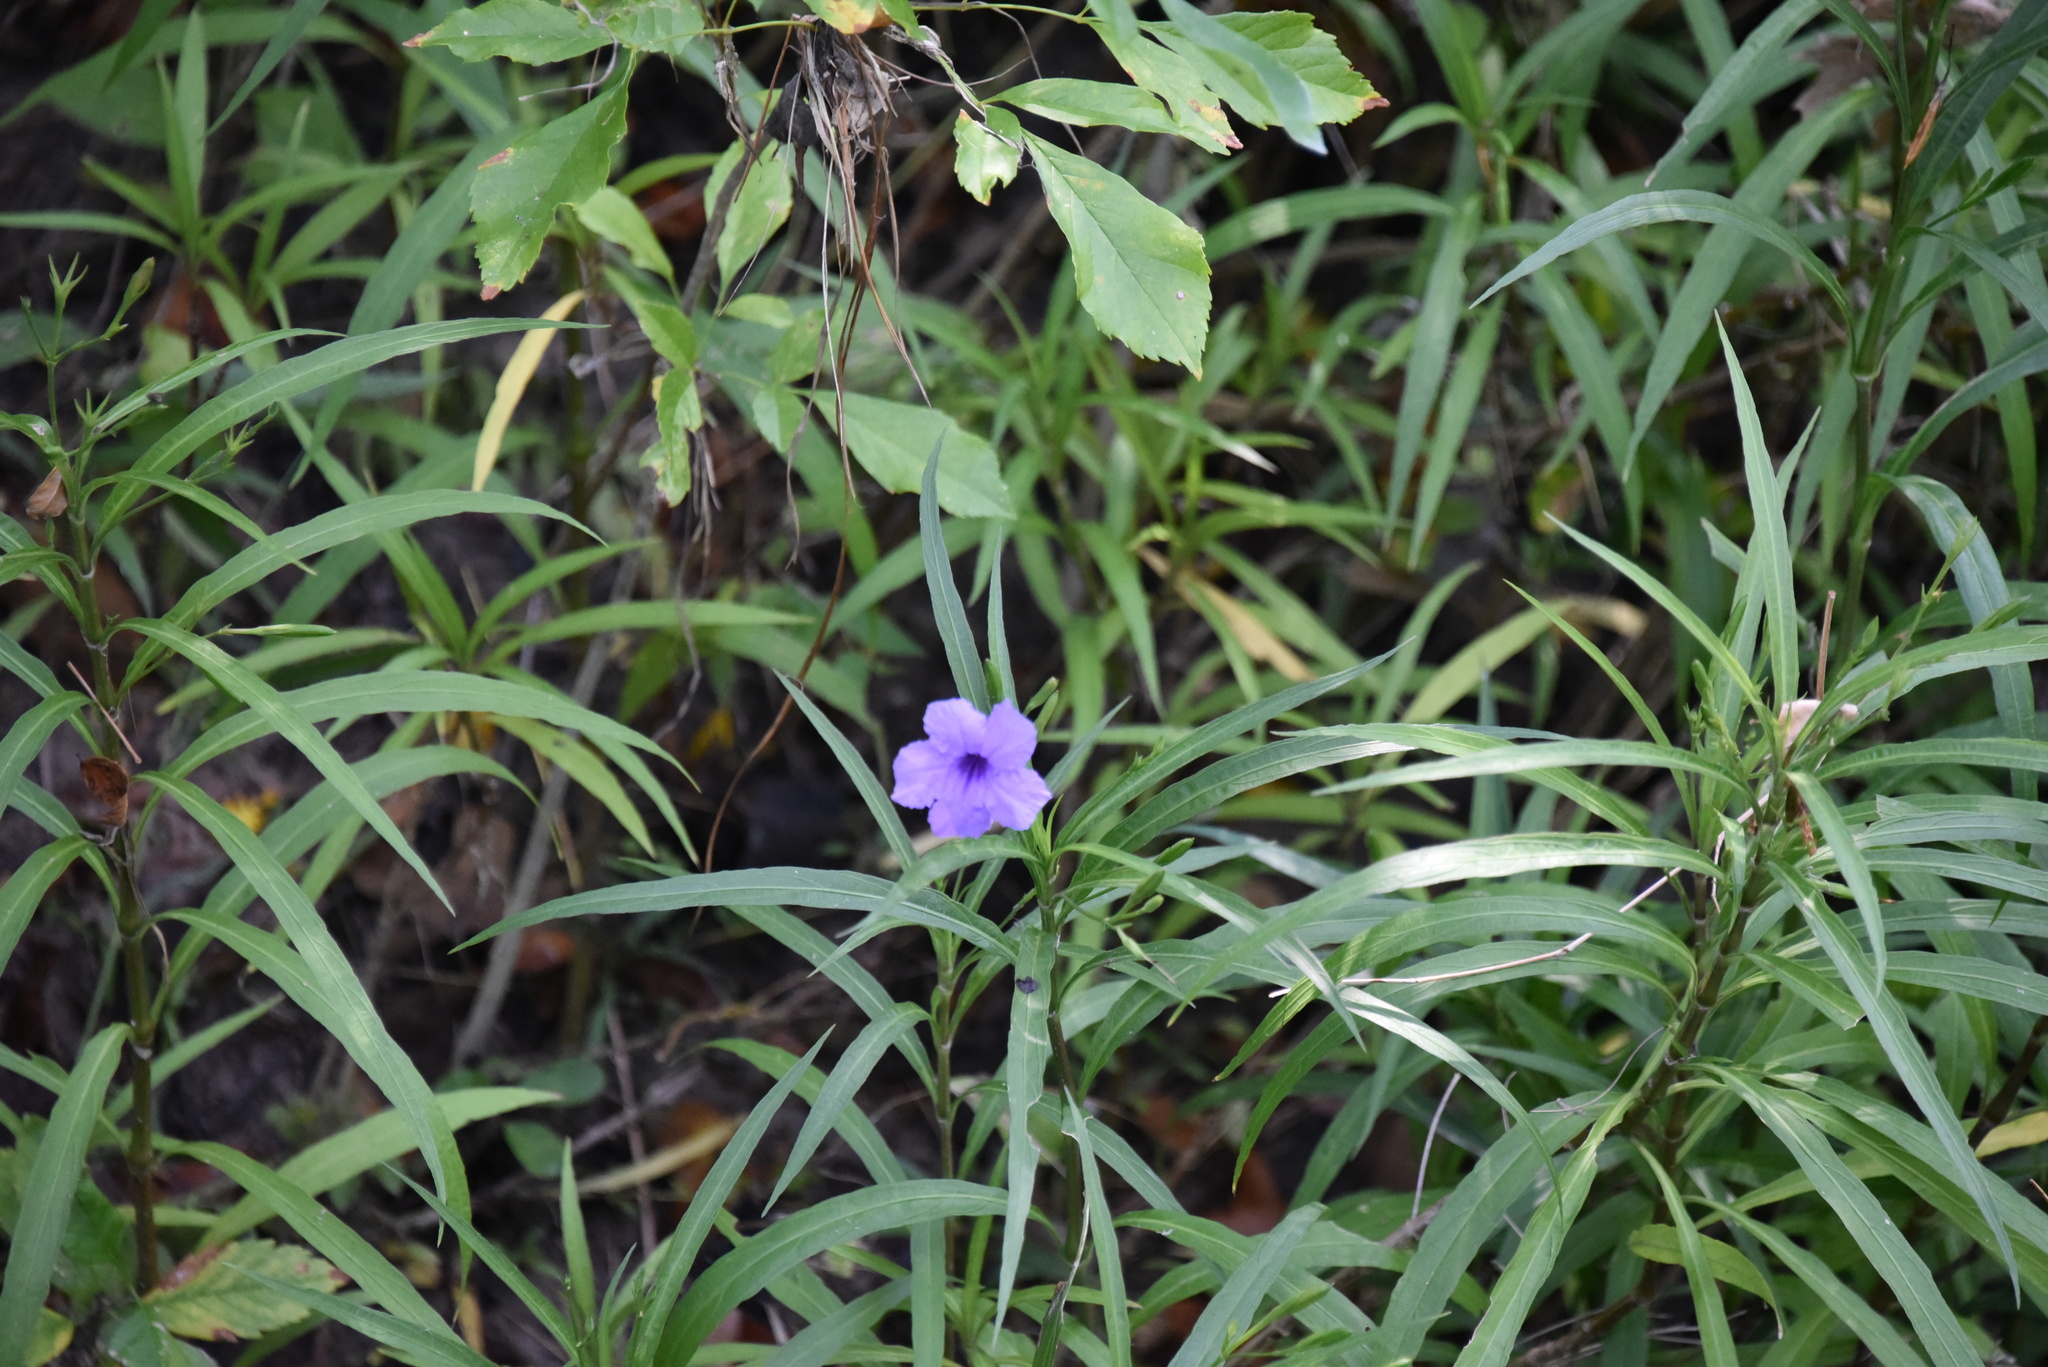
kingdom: Plantae
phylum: Tracheophyta
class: Magnoliopsida
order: Lamiales
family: Acanthaceae
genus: Ruellia
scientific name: Ruellia simplex
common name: Softseed wild petunia
